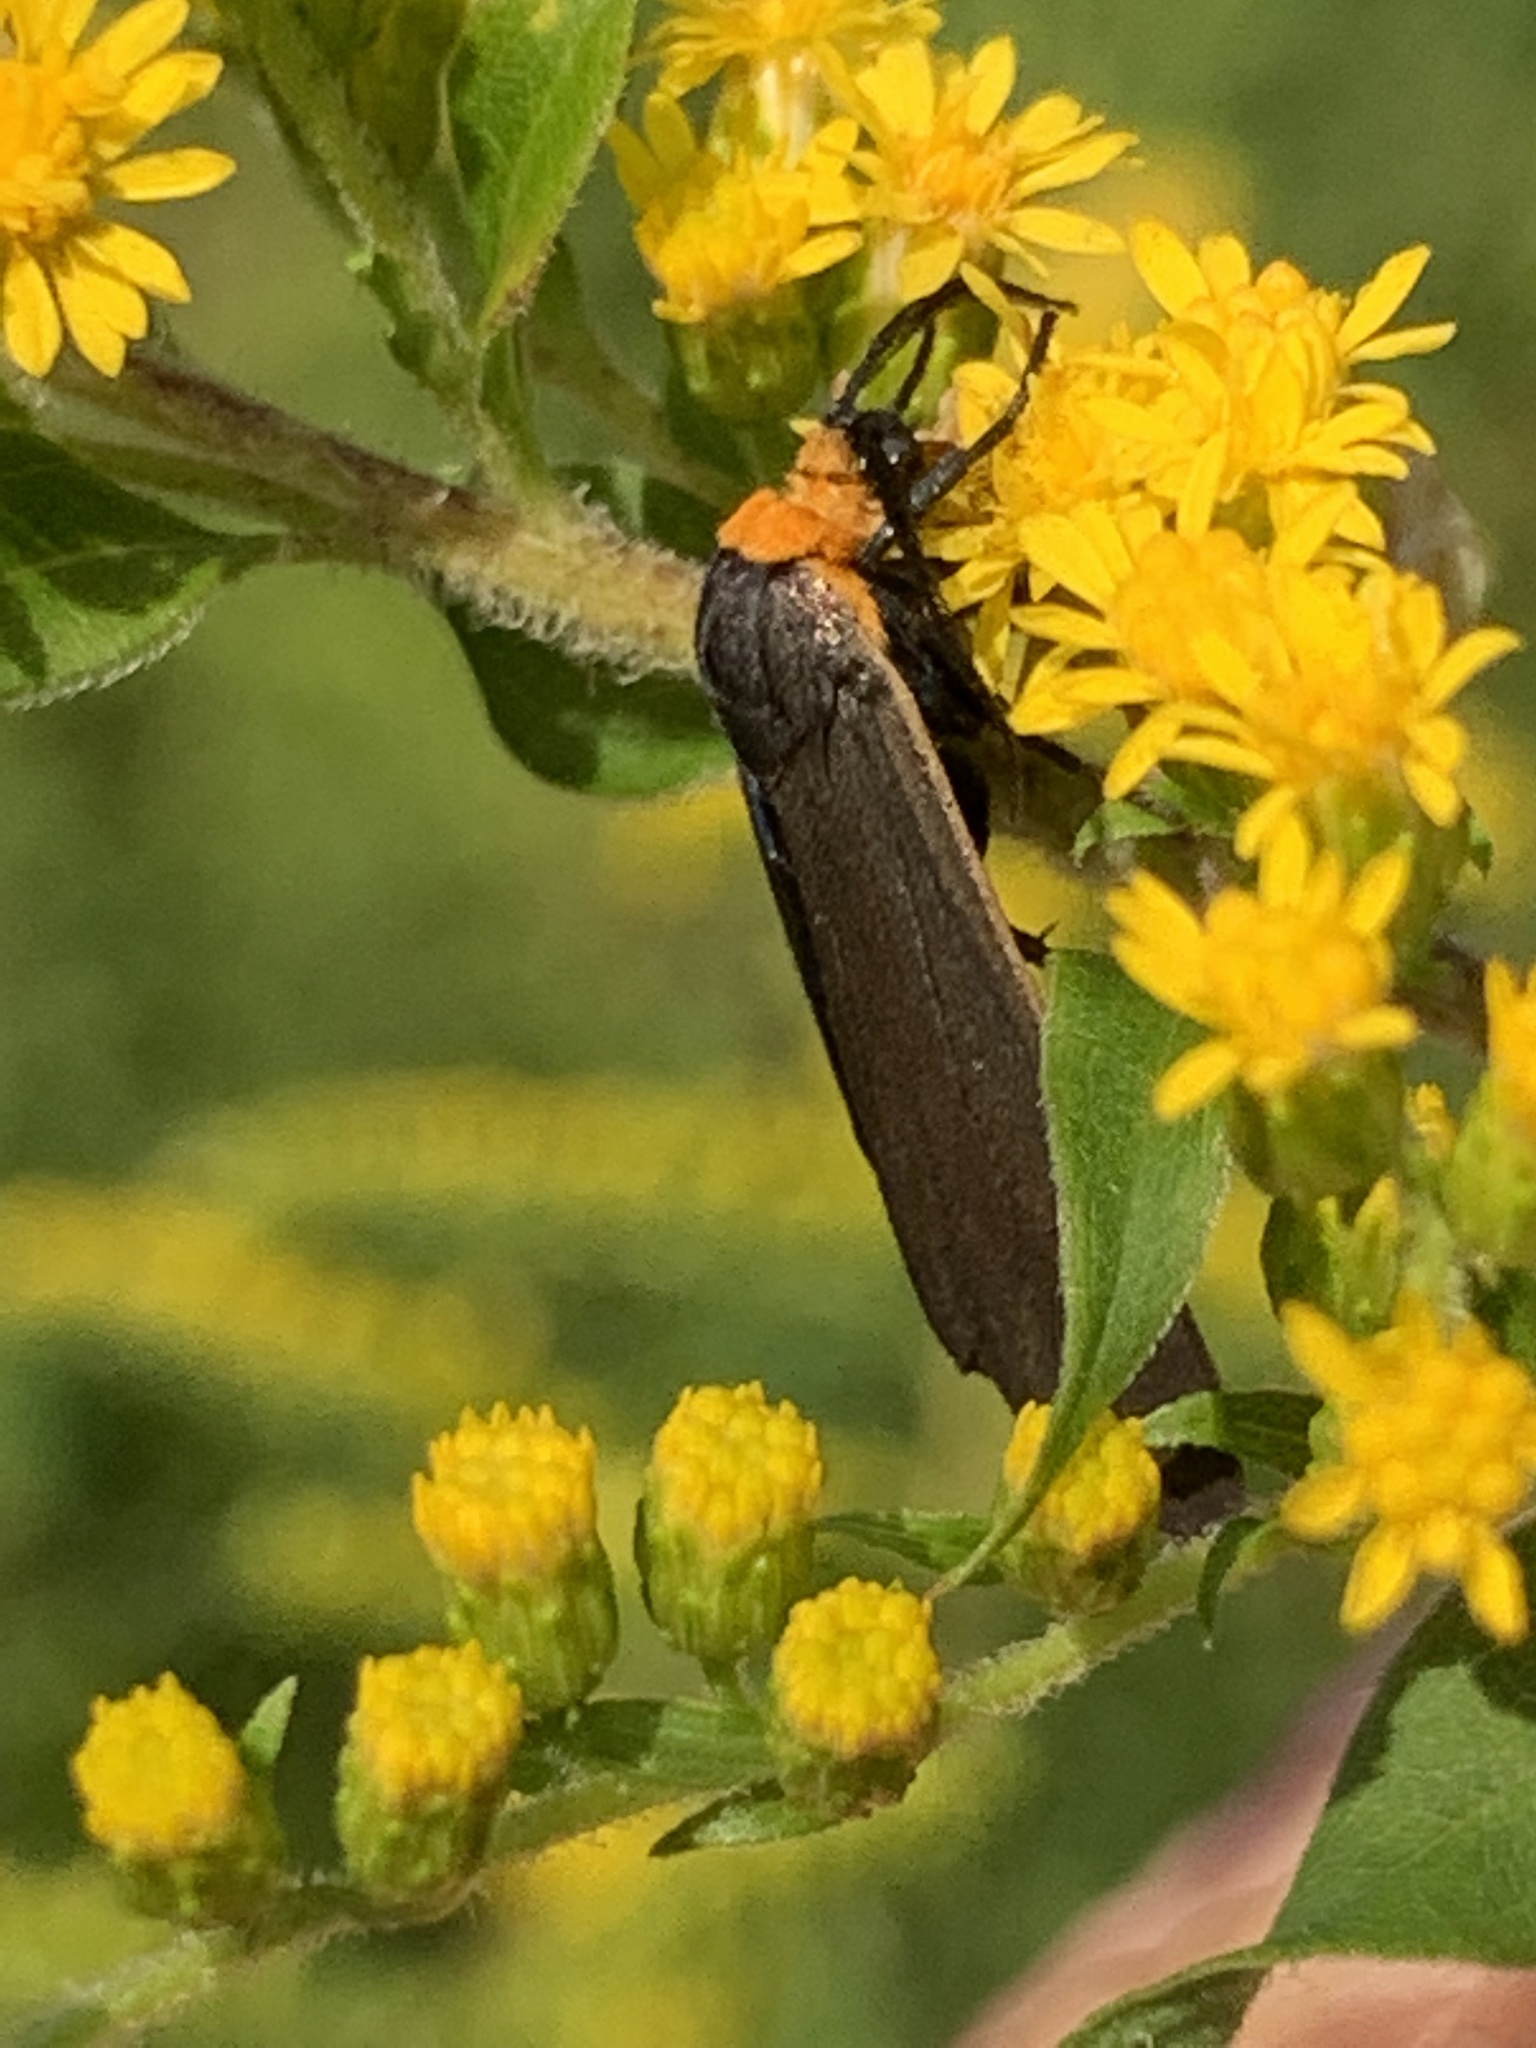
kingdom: Animalia
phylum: Arthropoda
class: Insecta
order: Lepidoptera
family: Erebidae
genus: Cisseps
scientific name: Cisseps fulvicollis
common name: Yellow-collared scape moth
